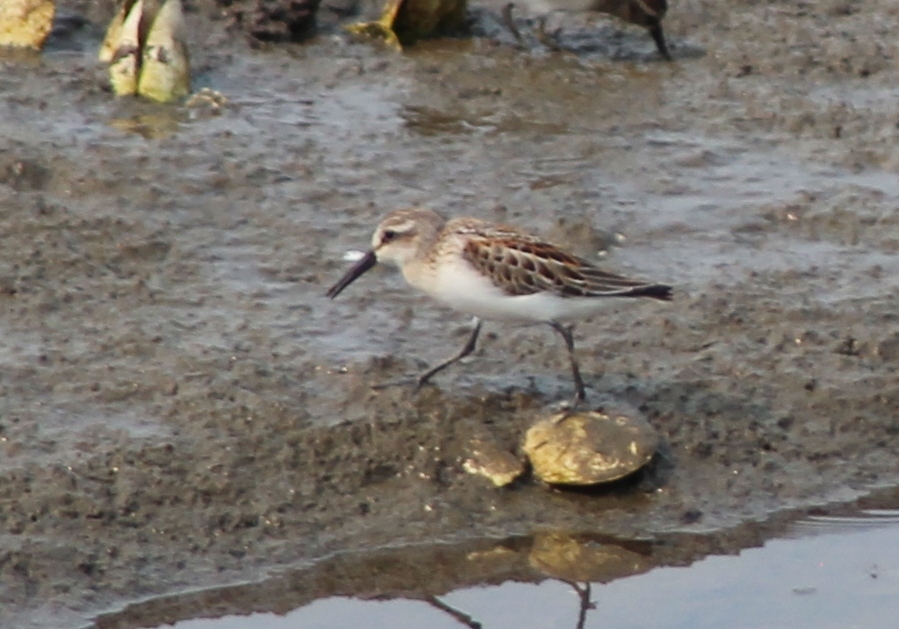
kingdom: Animalia
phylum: Chordata
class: Aves
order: Charadriiformes
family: Scolopacidae
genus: Calidris
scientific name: Calidris mauri
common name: Western sandpiper
